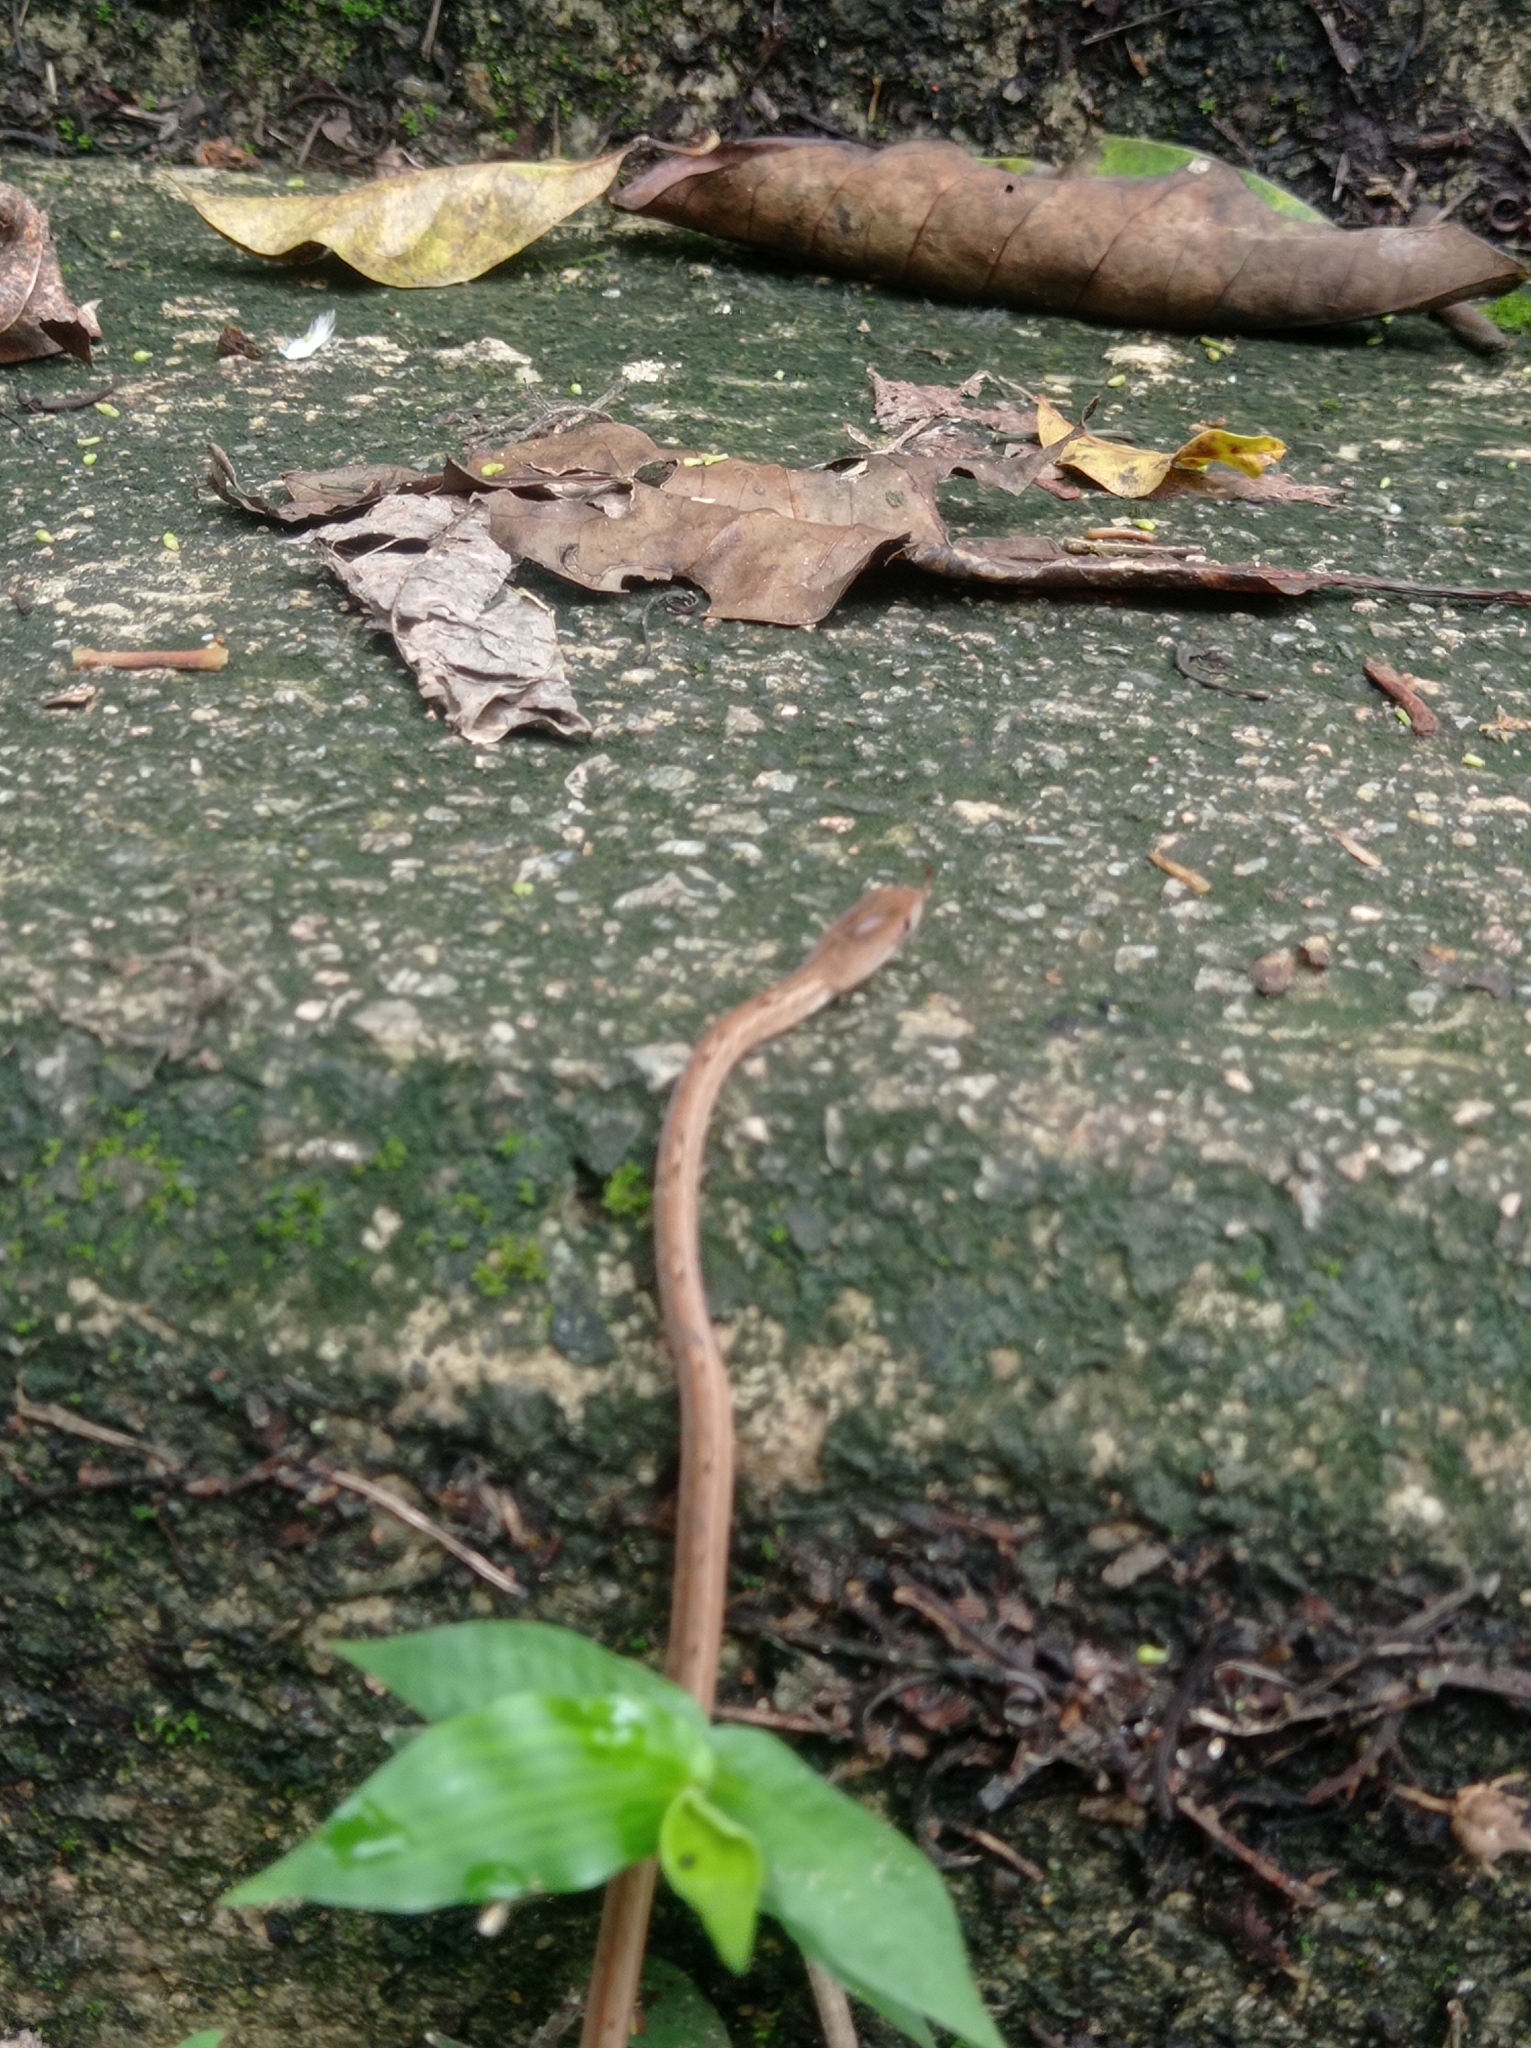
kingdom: Animalia
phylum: Chordata
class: Squamata
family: Pseudaspididae
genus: Psammodynastes
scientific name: Psammodynastes pulverulentus
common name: Common mock viper
